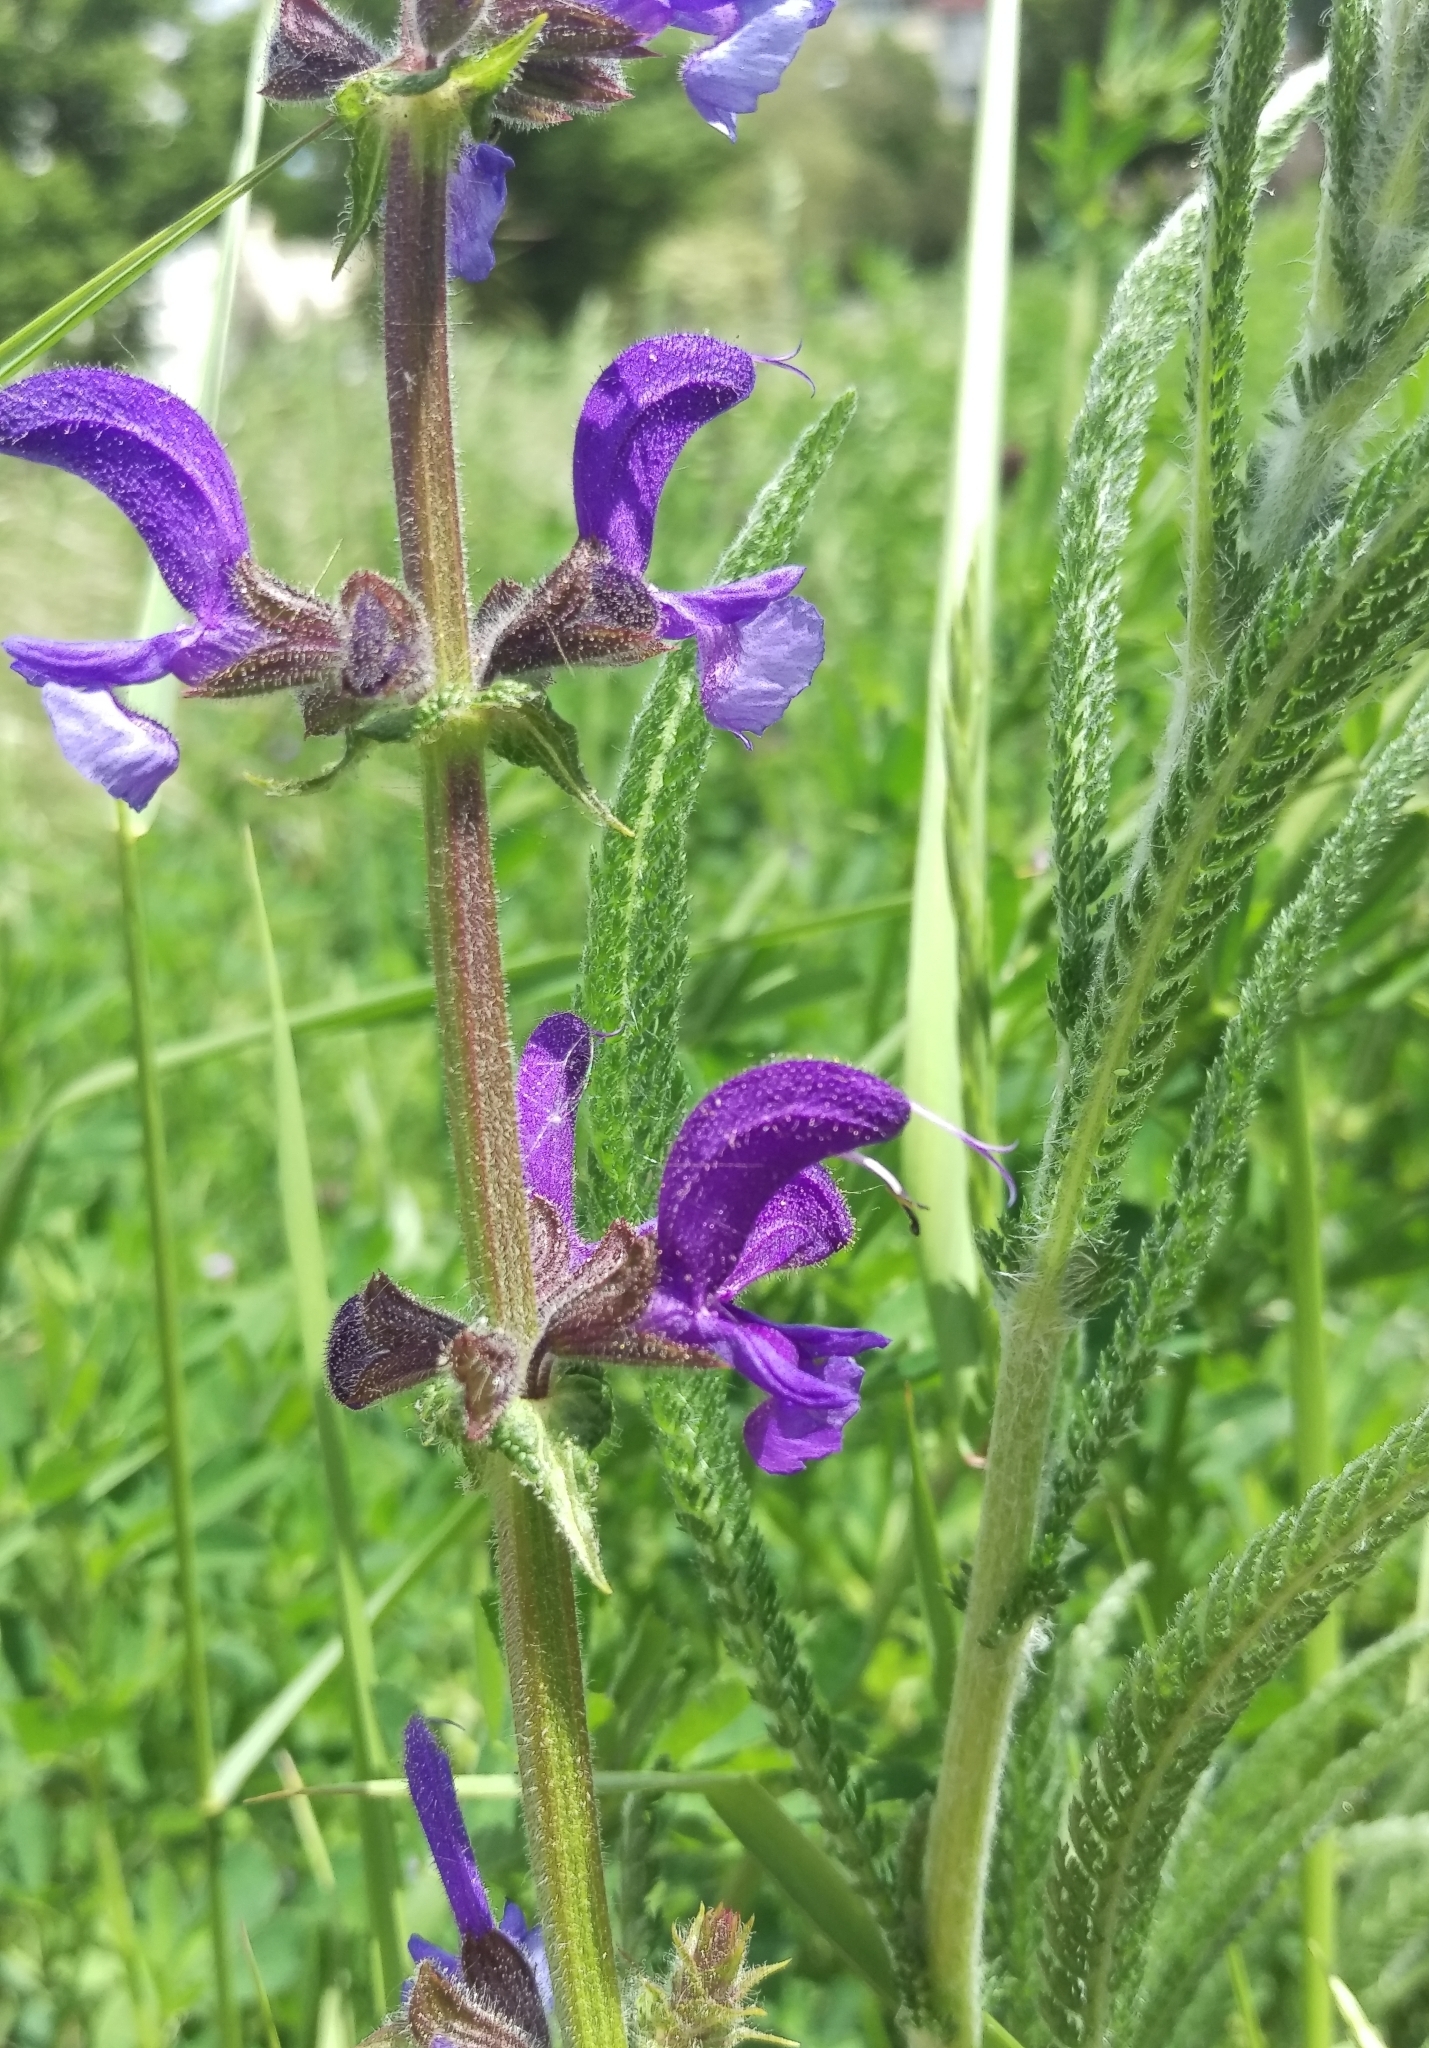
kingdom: Plantae
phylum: Tracheophyta
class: Magnoliopsida
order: Lamiales
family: Lamiaceae
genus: Salvia
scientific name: Salvia pratensis
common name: Meadow sage
